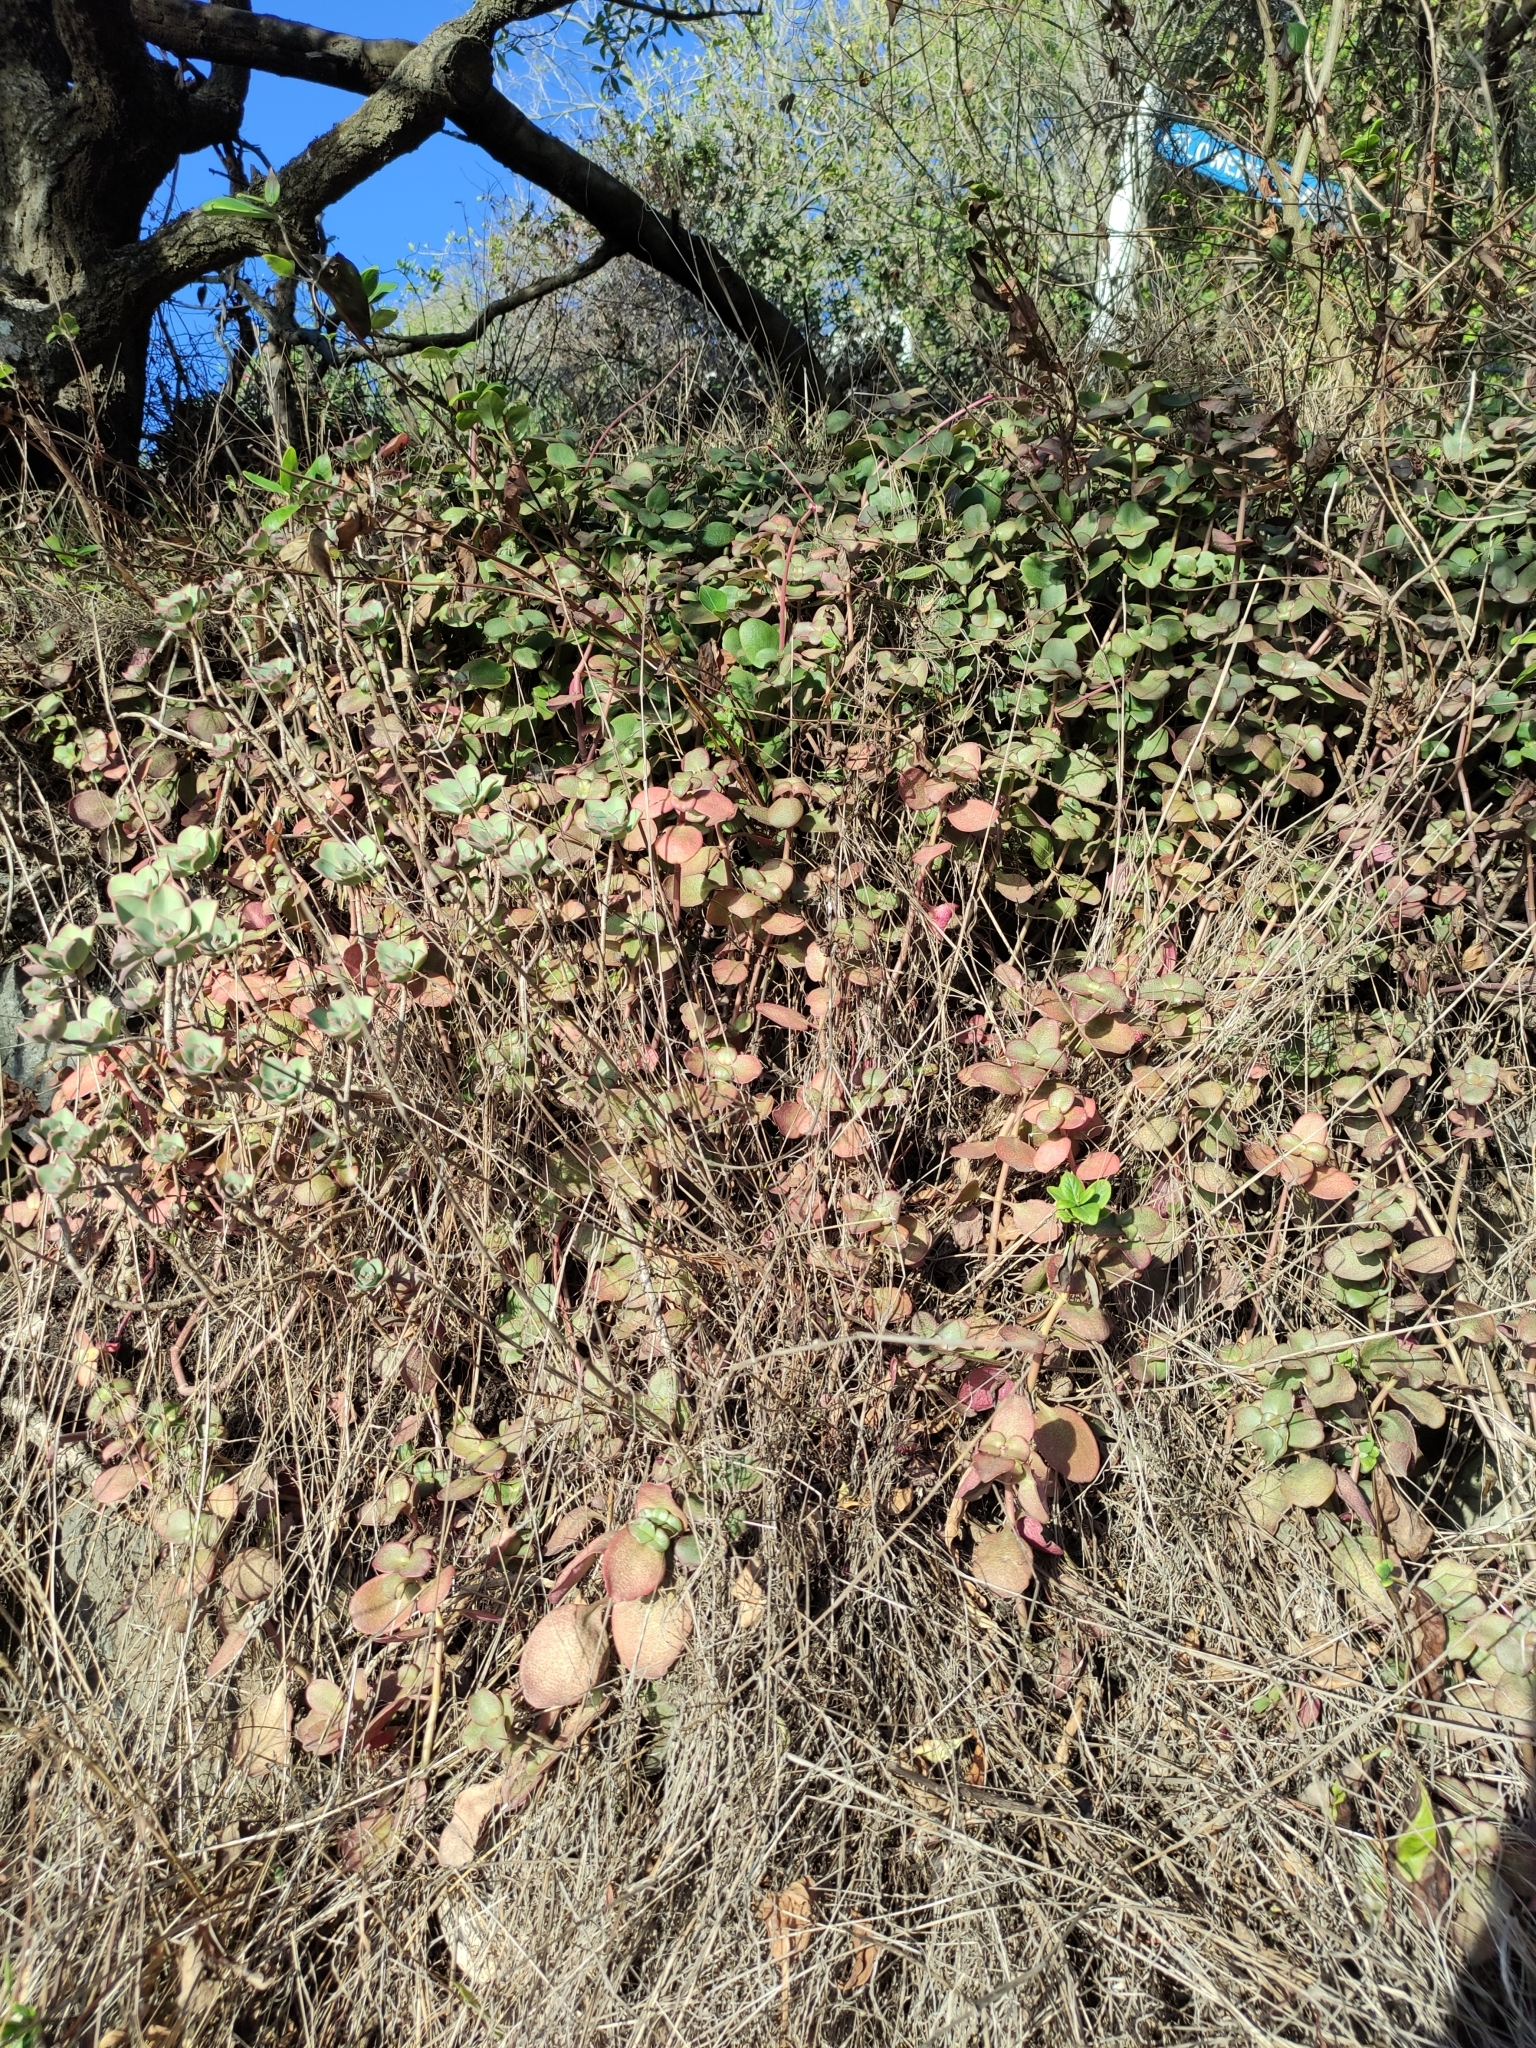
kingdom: Plantae
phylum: Tracheophyta
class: Magnoliopsida
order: Saxifragales
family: Crassulaceae
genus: Crassula
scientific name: Crassula multicava
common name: Cape province pygmyweed
